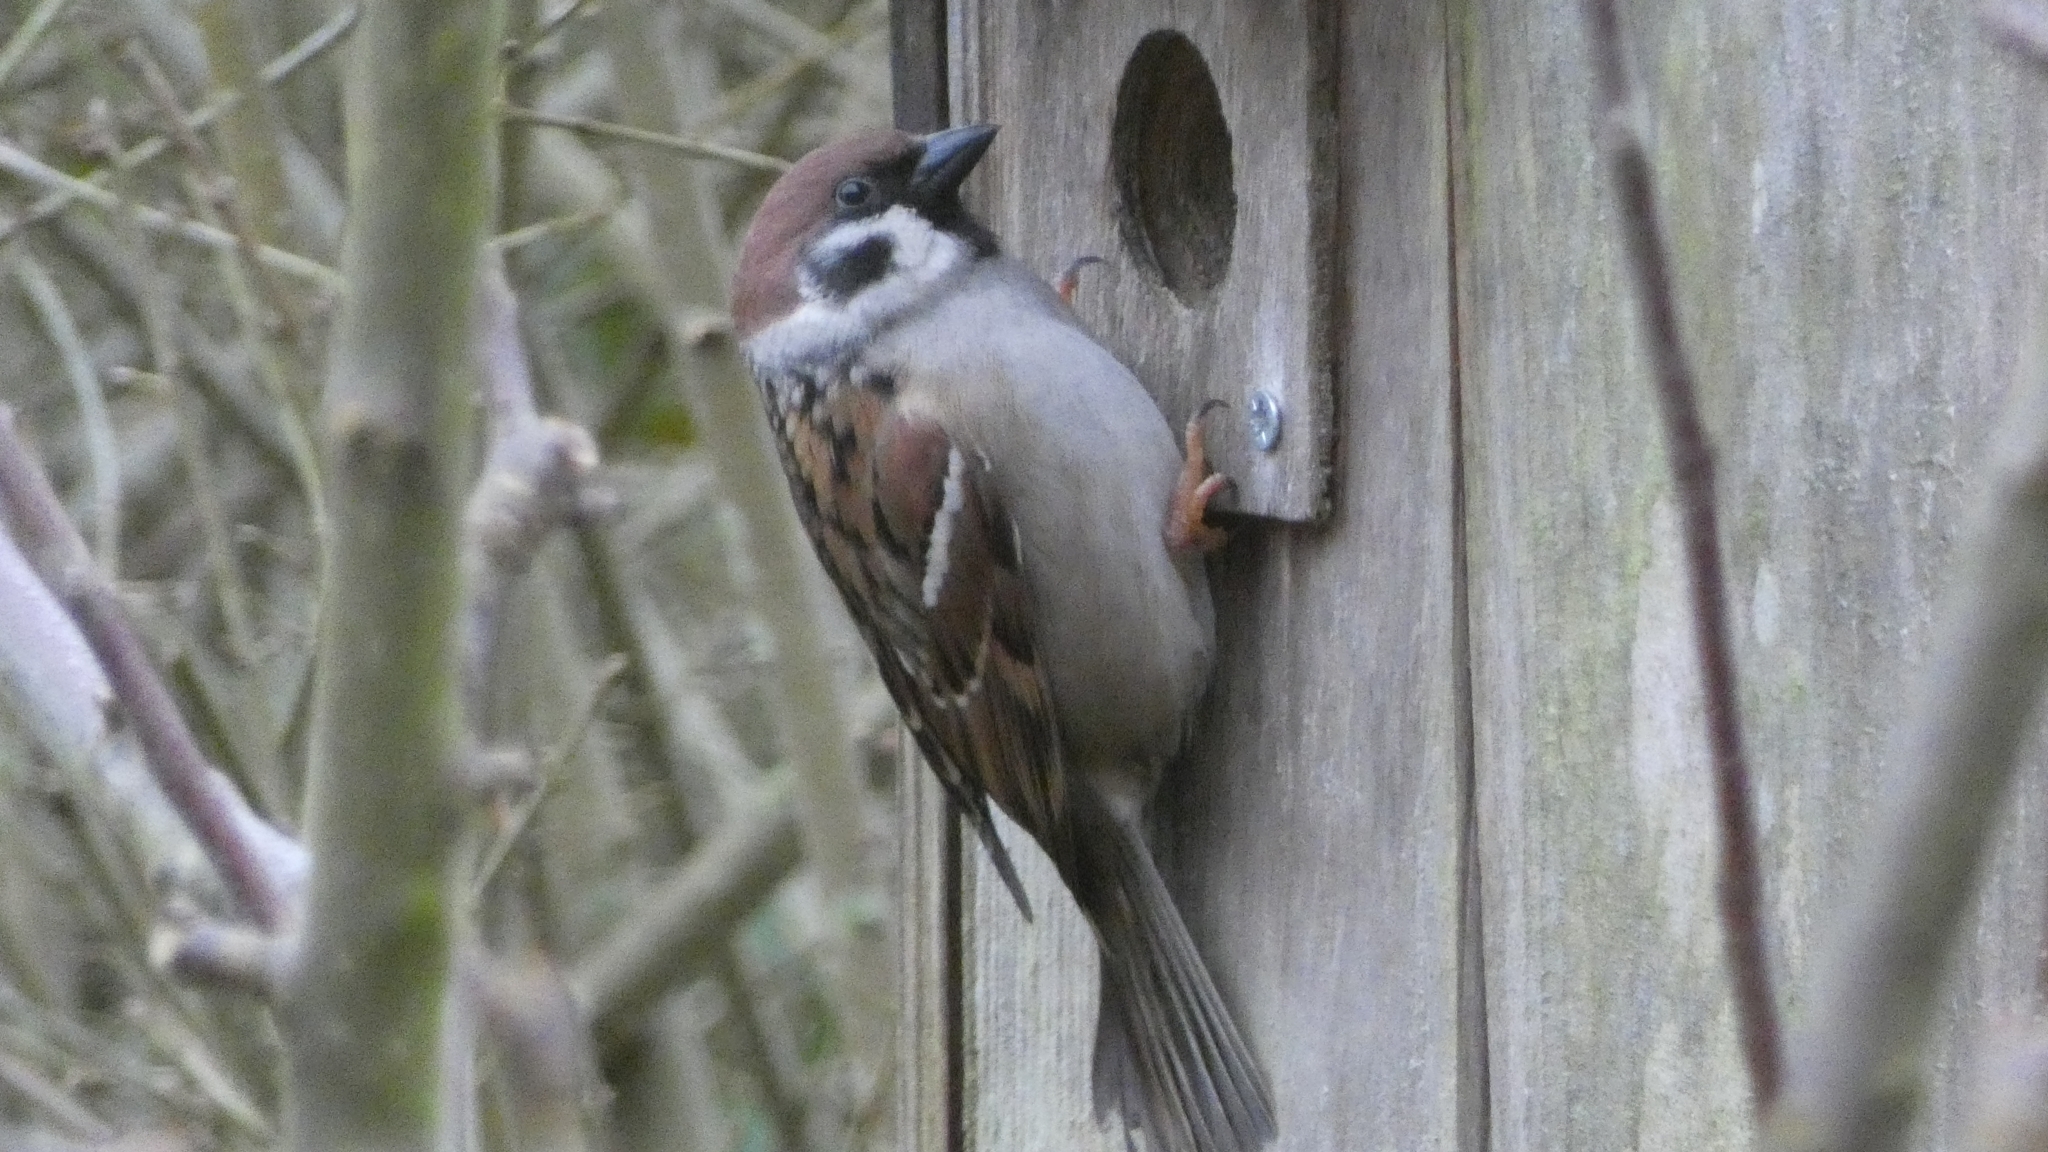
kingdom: Animalia
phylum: Chordata
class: Aves
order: Passeriformes
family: Passeridae
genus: Passer
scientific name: Passer montanus
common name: Eurasian tree sparrow
